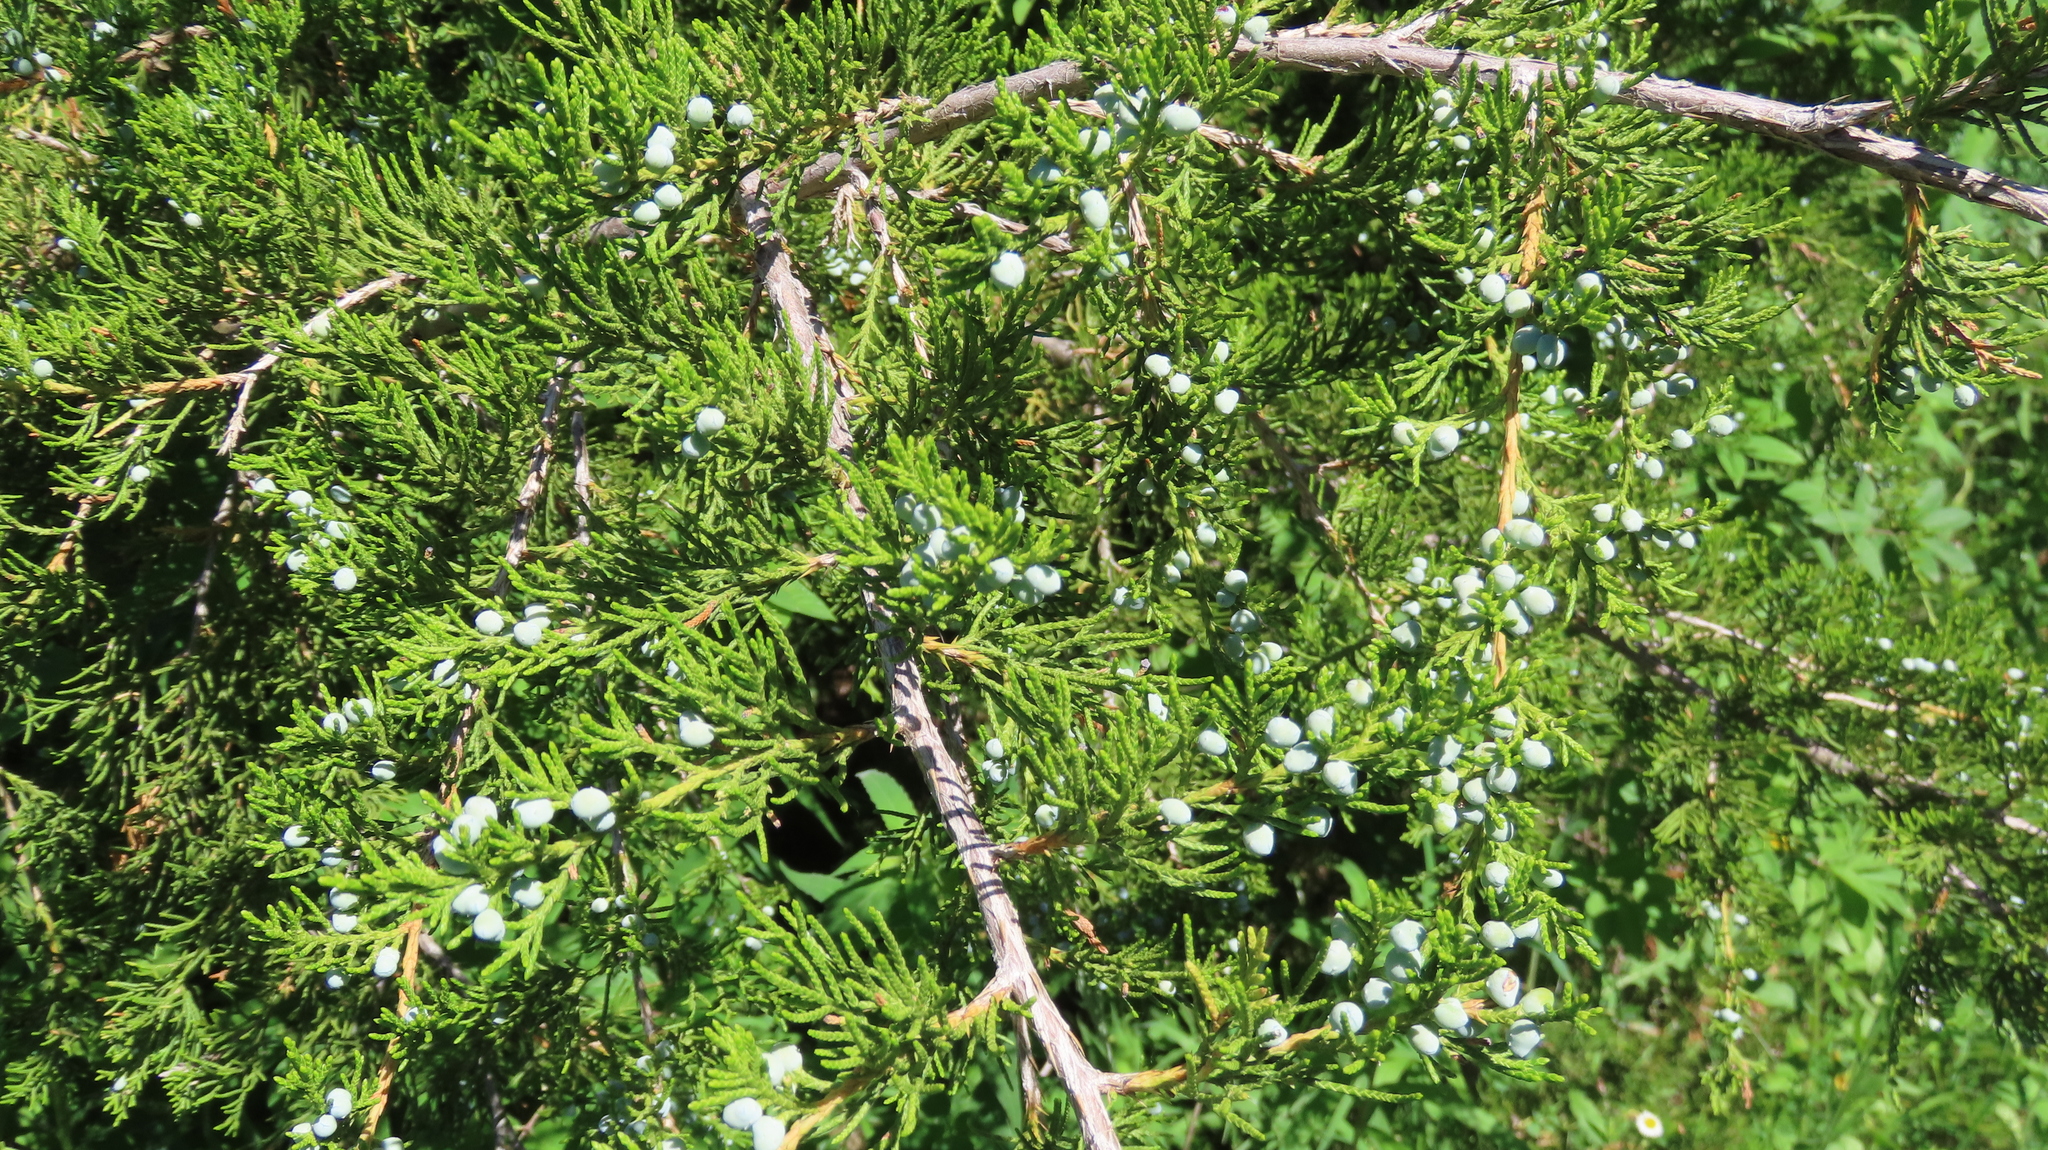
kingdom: Plantae
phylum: Tracheophyta
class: Pinopsida
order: Pinales
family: Cupressaceae
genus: Juniperus
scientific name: Juniperus virginiana
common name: Red juniper
